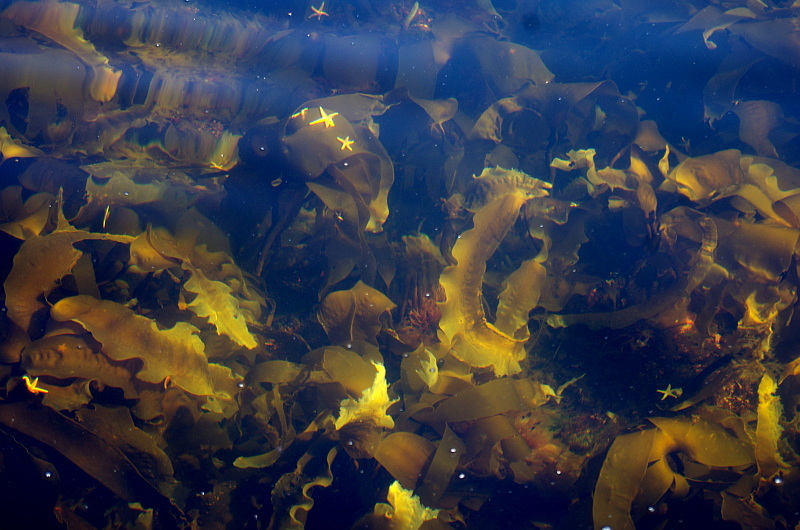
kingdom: Animalia
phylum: Echinodermata
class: Asteroidea
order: Forcipulatida
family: Asteriidae
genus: Asterias
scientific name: Asterias rubens
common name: Common starfish
